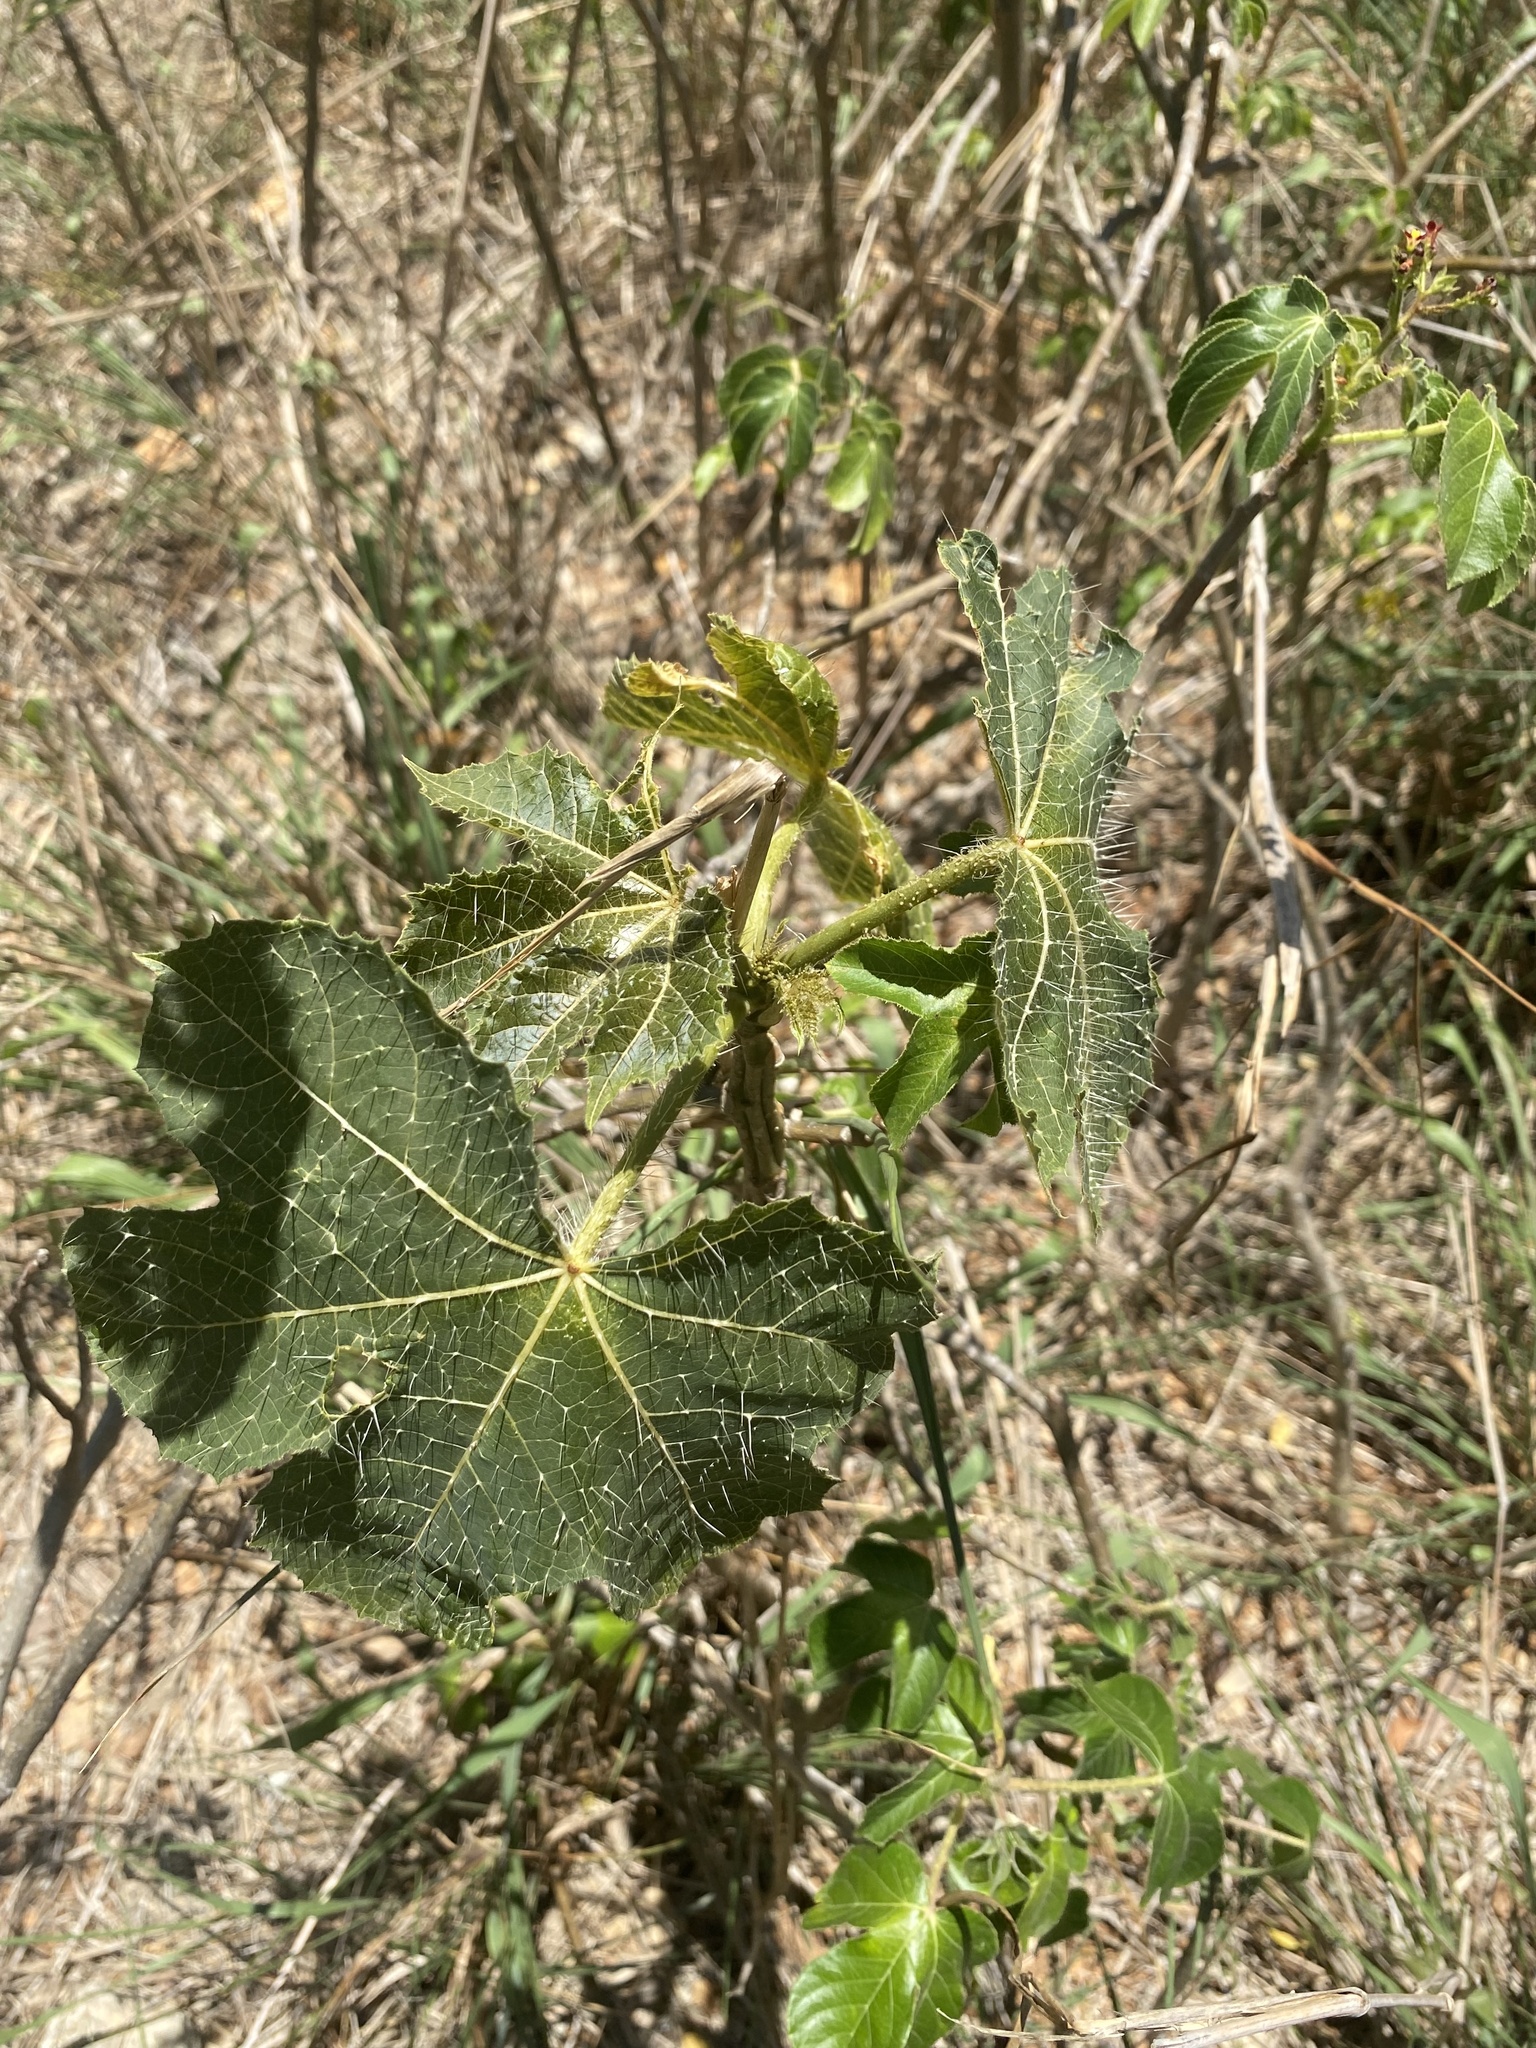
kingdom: Plantae
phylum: Tracheophyta
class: Magnoliopsida
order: Malpighiales
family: Euphorbiaceae
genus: Cnidoscolus
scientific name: Cnidoscolus urens
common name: Bull-nettle
